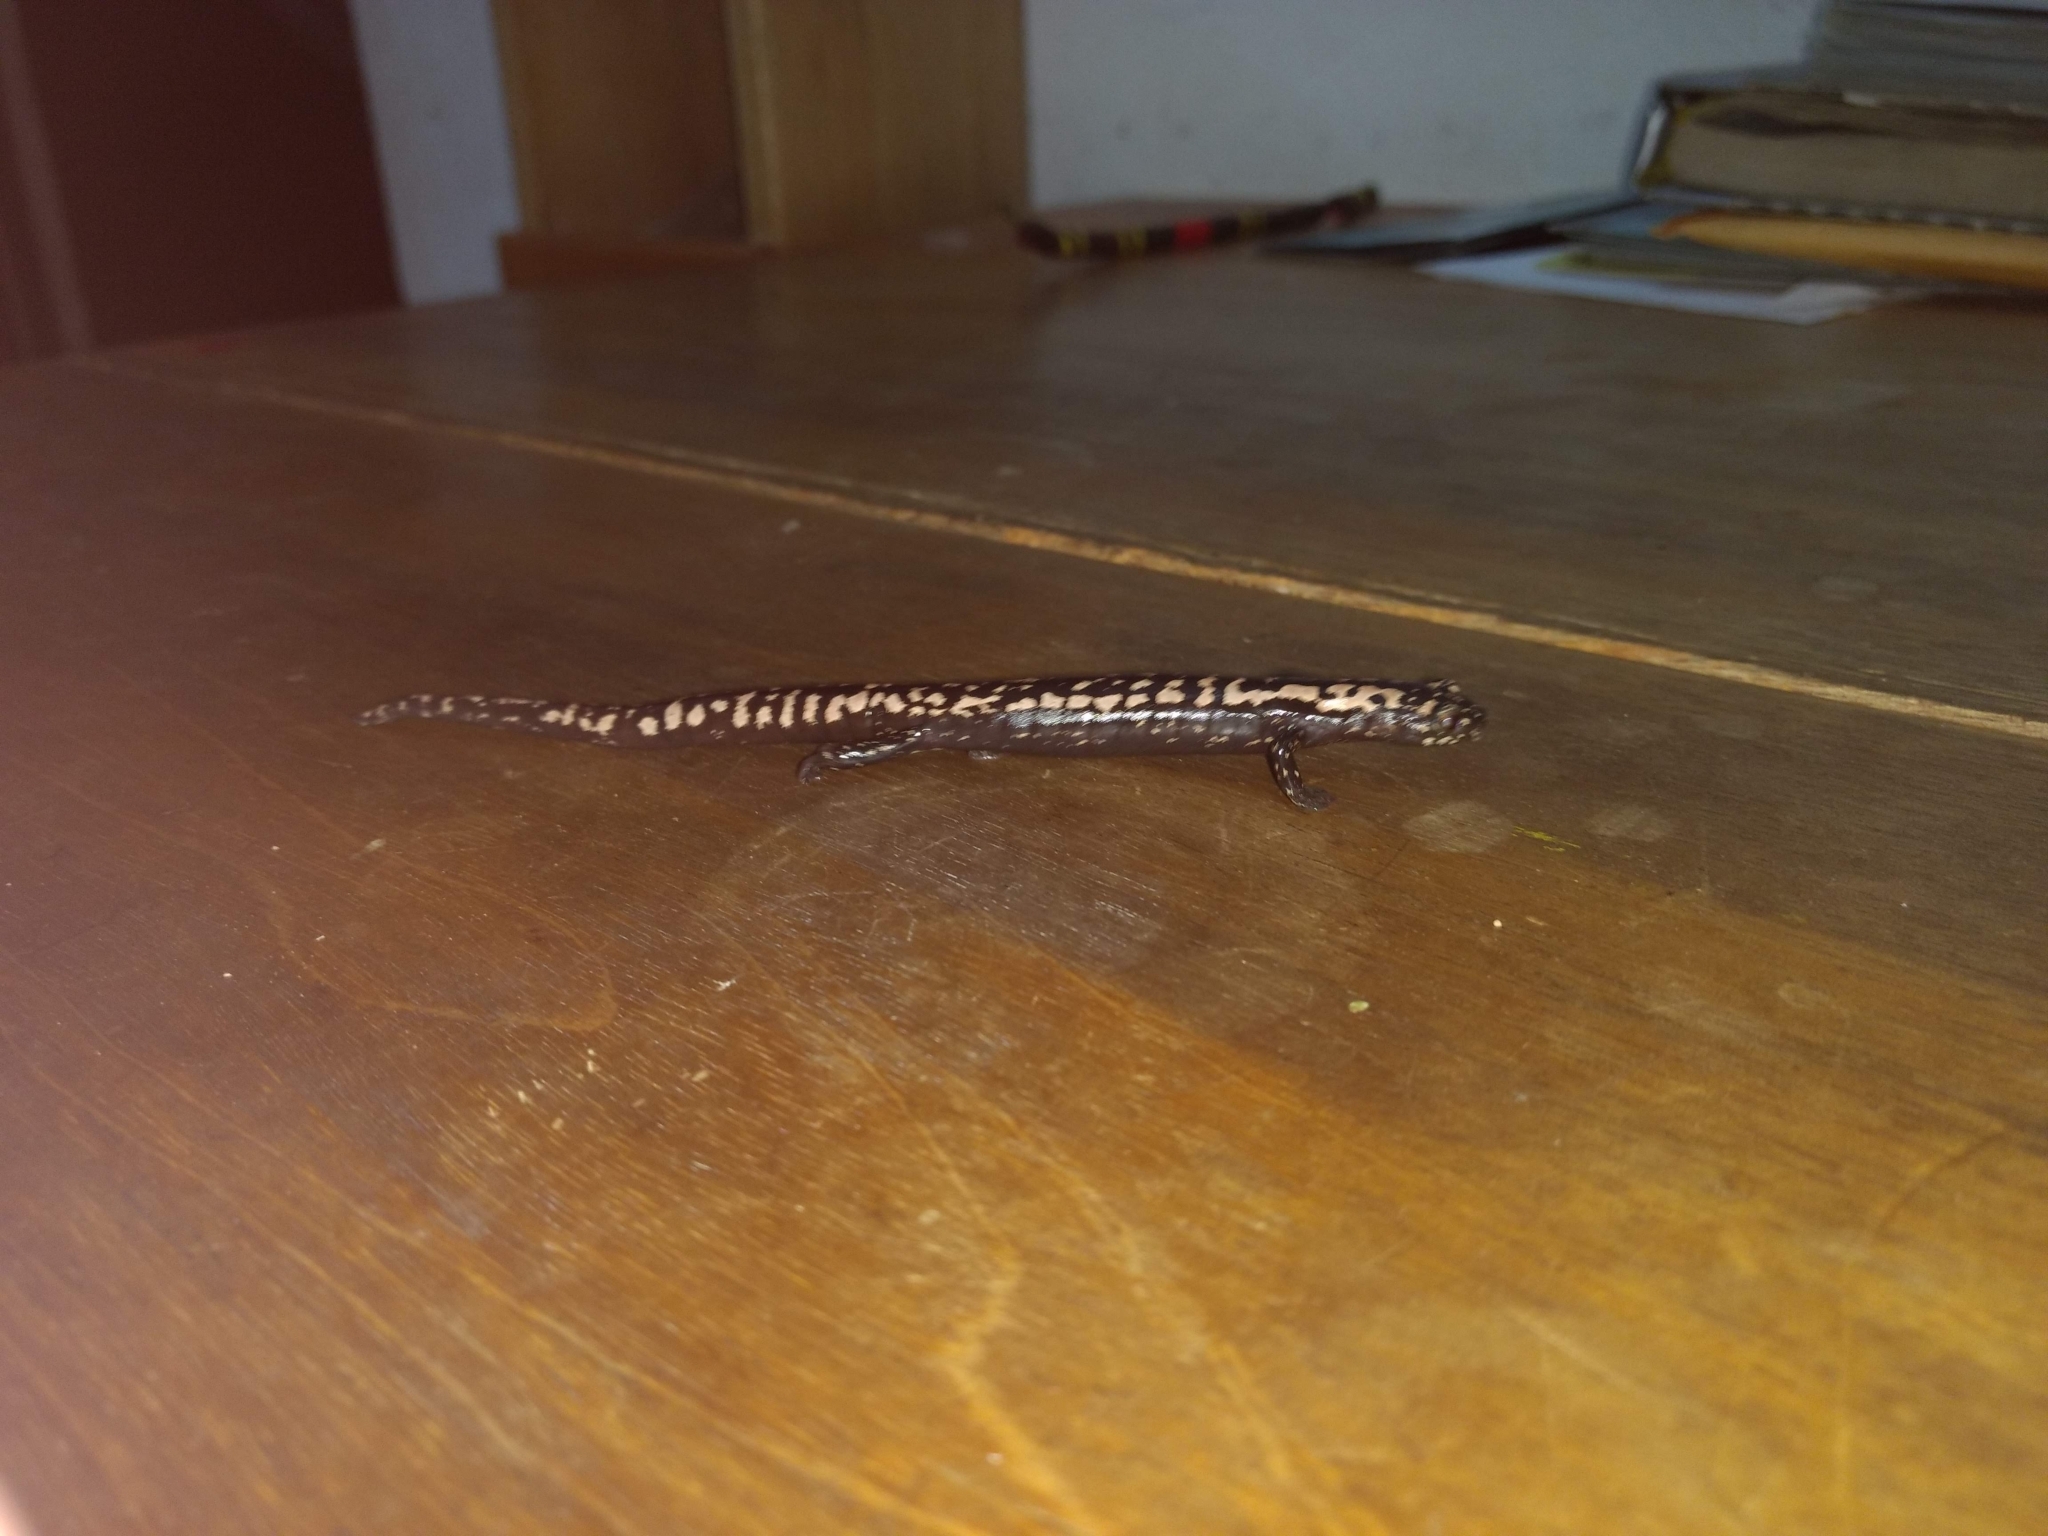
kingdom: Animalia
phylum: Chordata
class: Amphibia
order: Caudata
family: Plethodontidae
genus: Bolitoglossa
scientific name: Bolitoglossa mexicana
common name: Black-and-gold salamander
